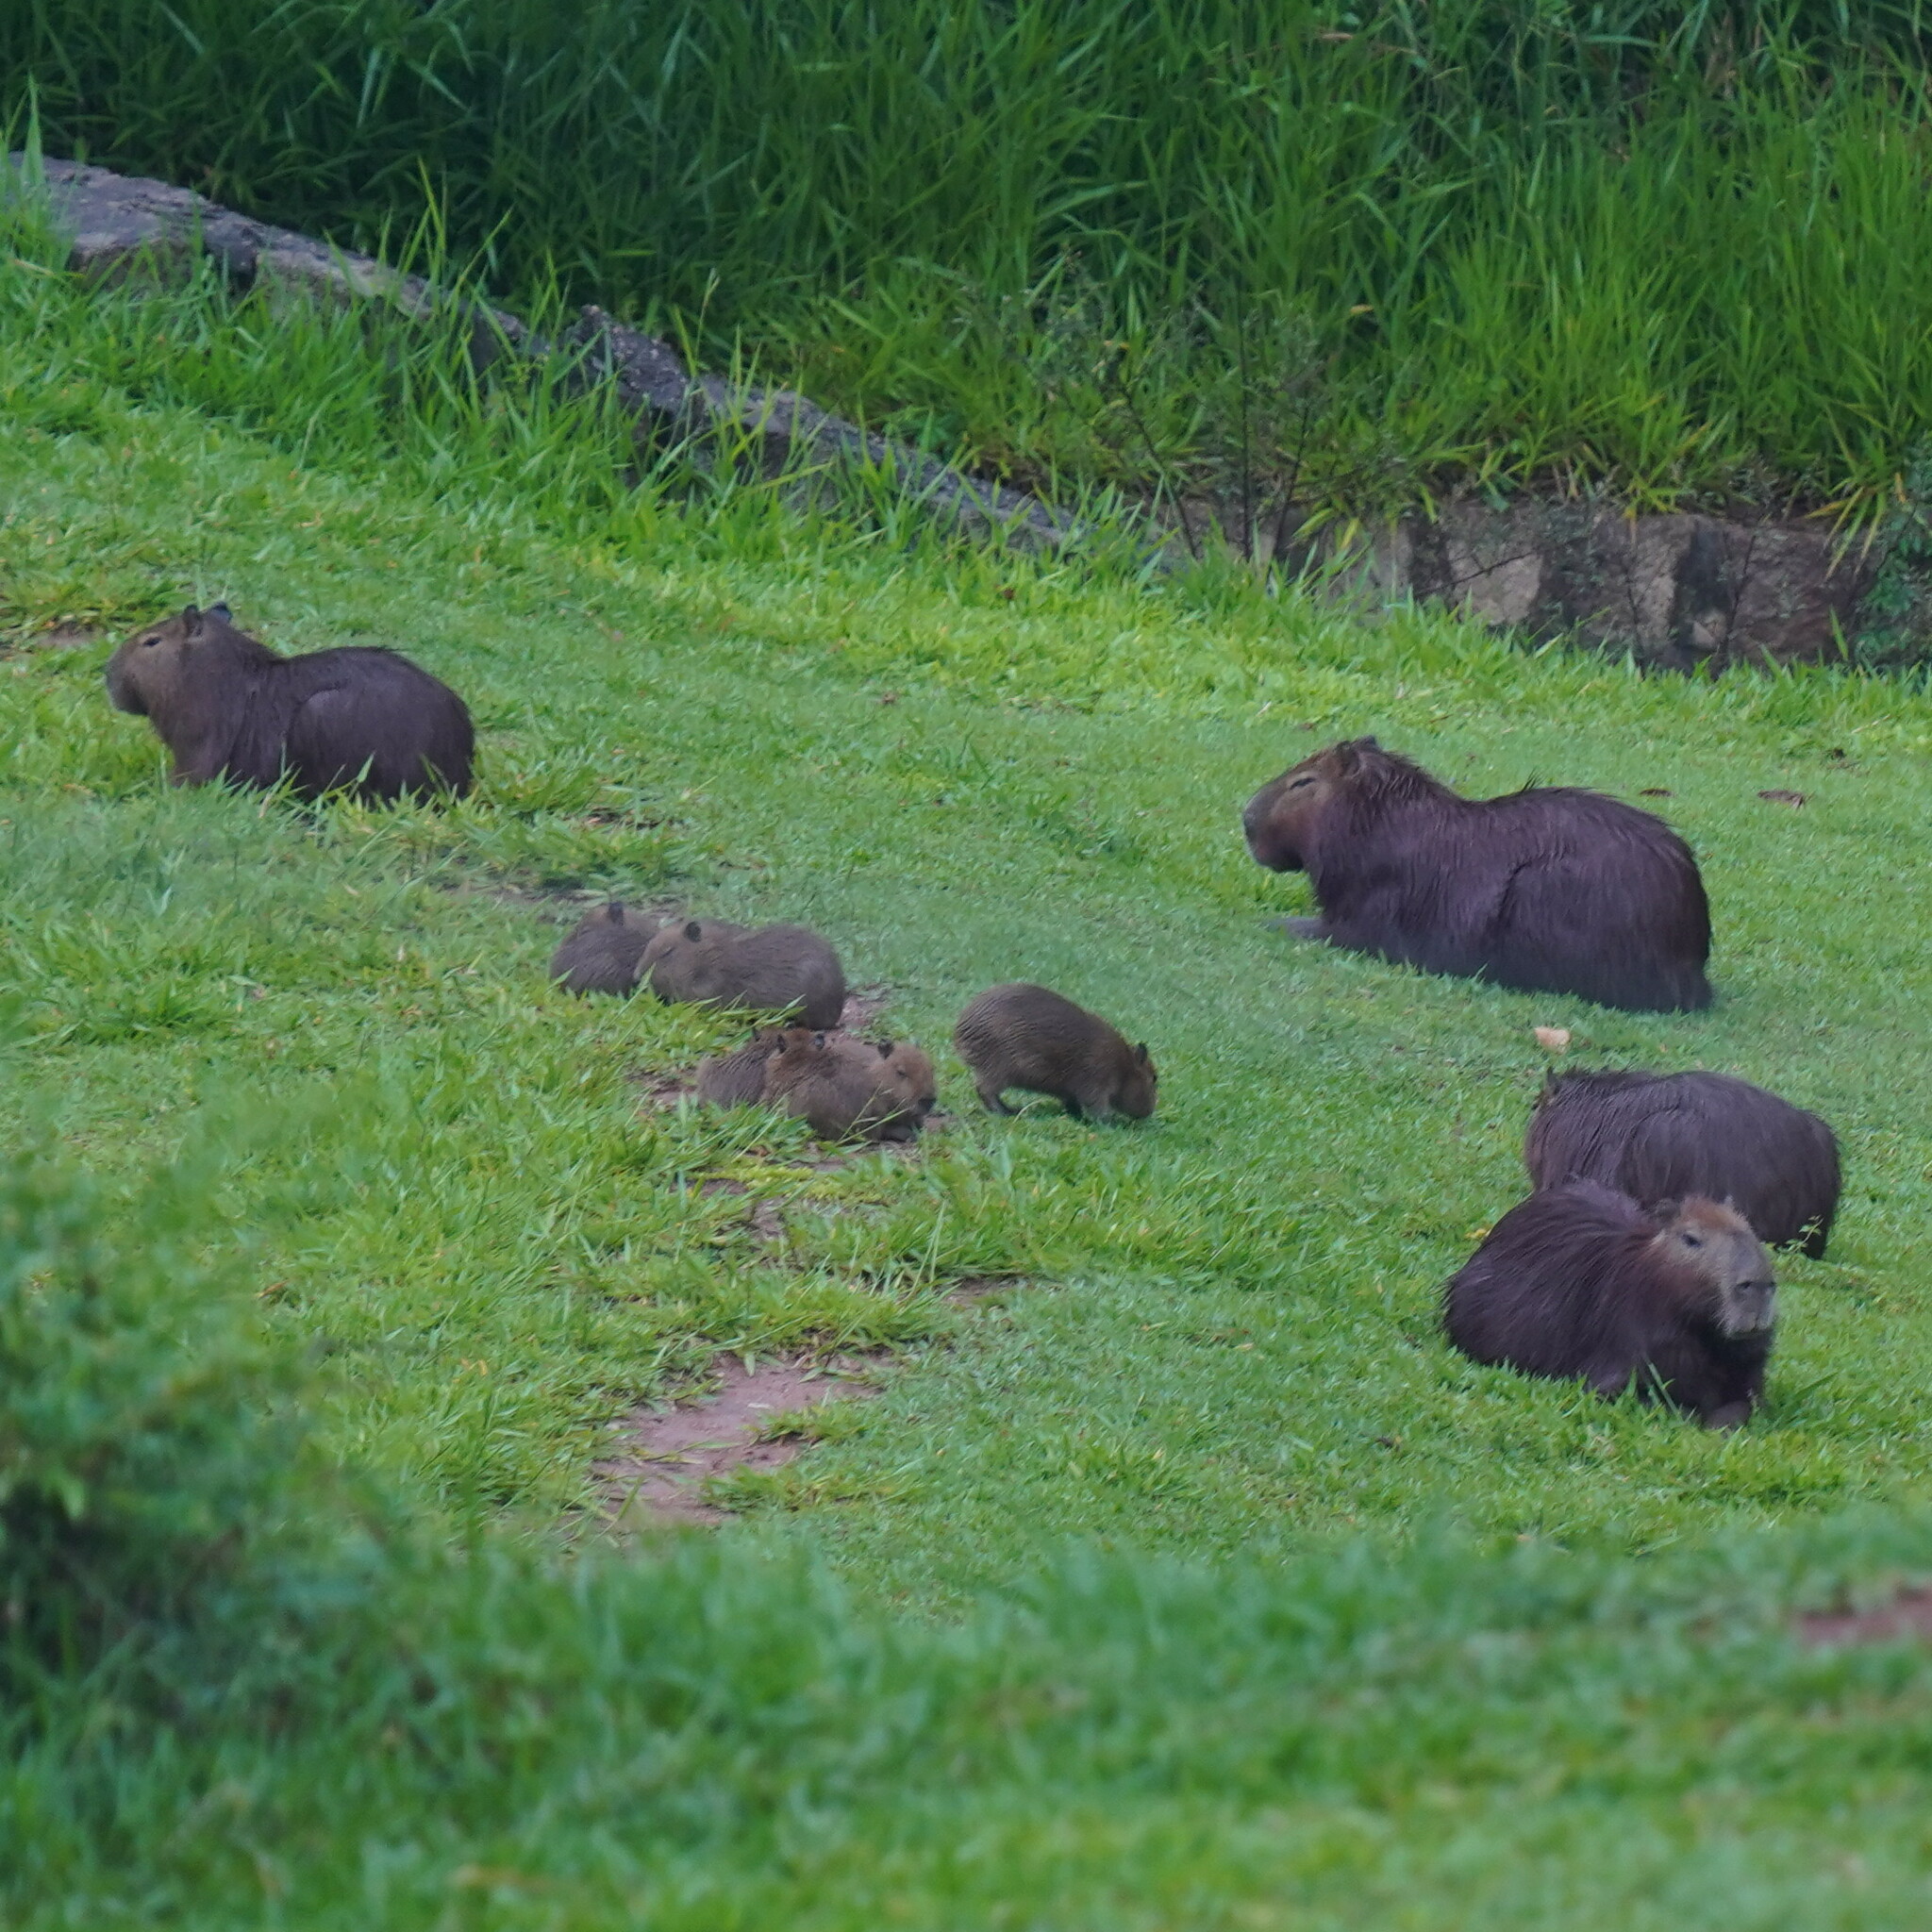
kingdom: Animalia
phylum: Chordata
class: Mammalia
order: Rodentia
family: Caviidae
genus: Hydrochoerus
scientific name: Hydrochoerus hydrochaeris
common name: Capybara
